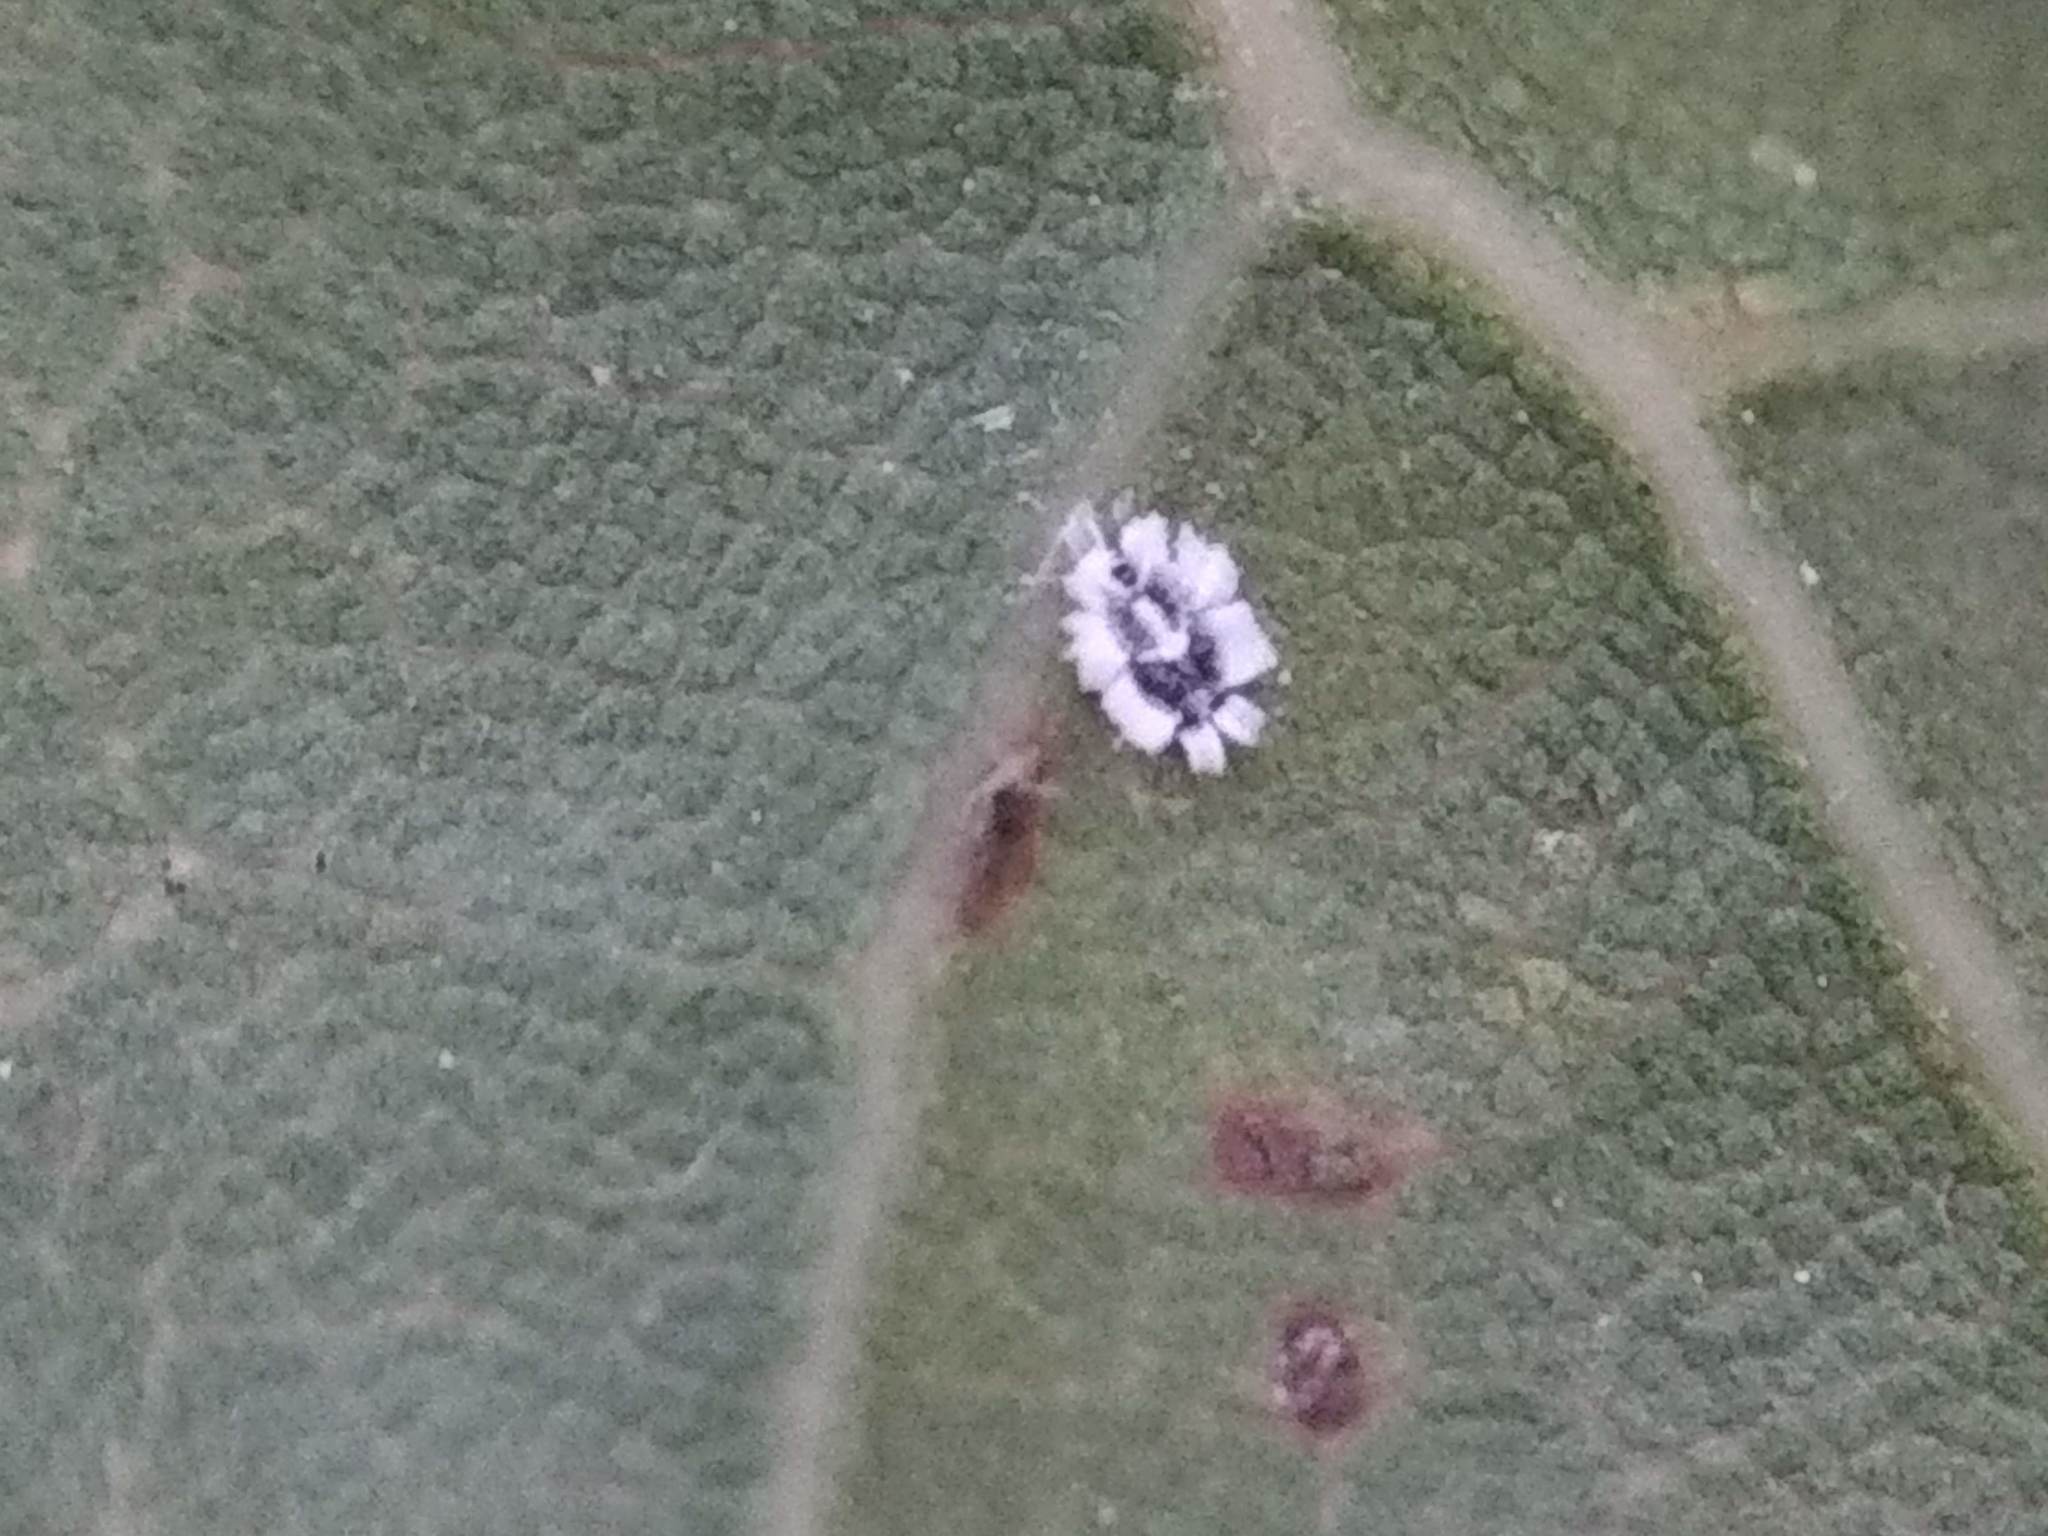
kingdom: Animalia
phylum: Arthropoda
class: Insecta
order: Hemiptera
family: Aleyrodidae
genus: Aleuroplatus
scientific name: Aleuroplatus coronata
